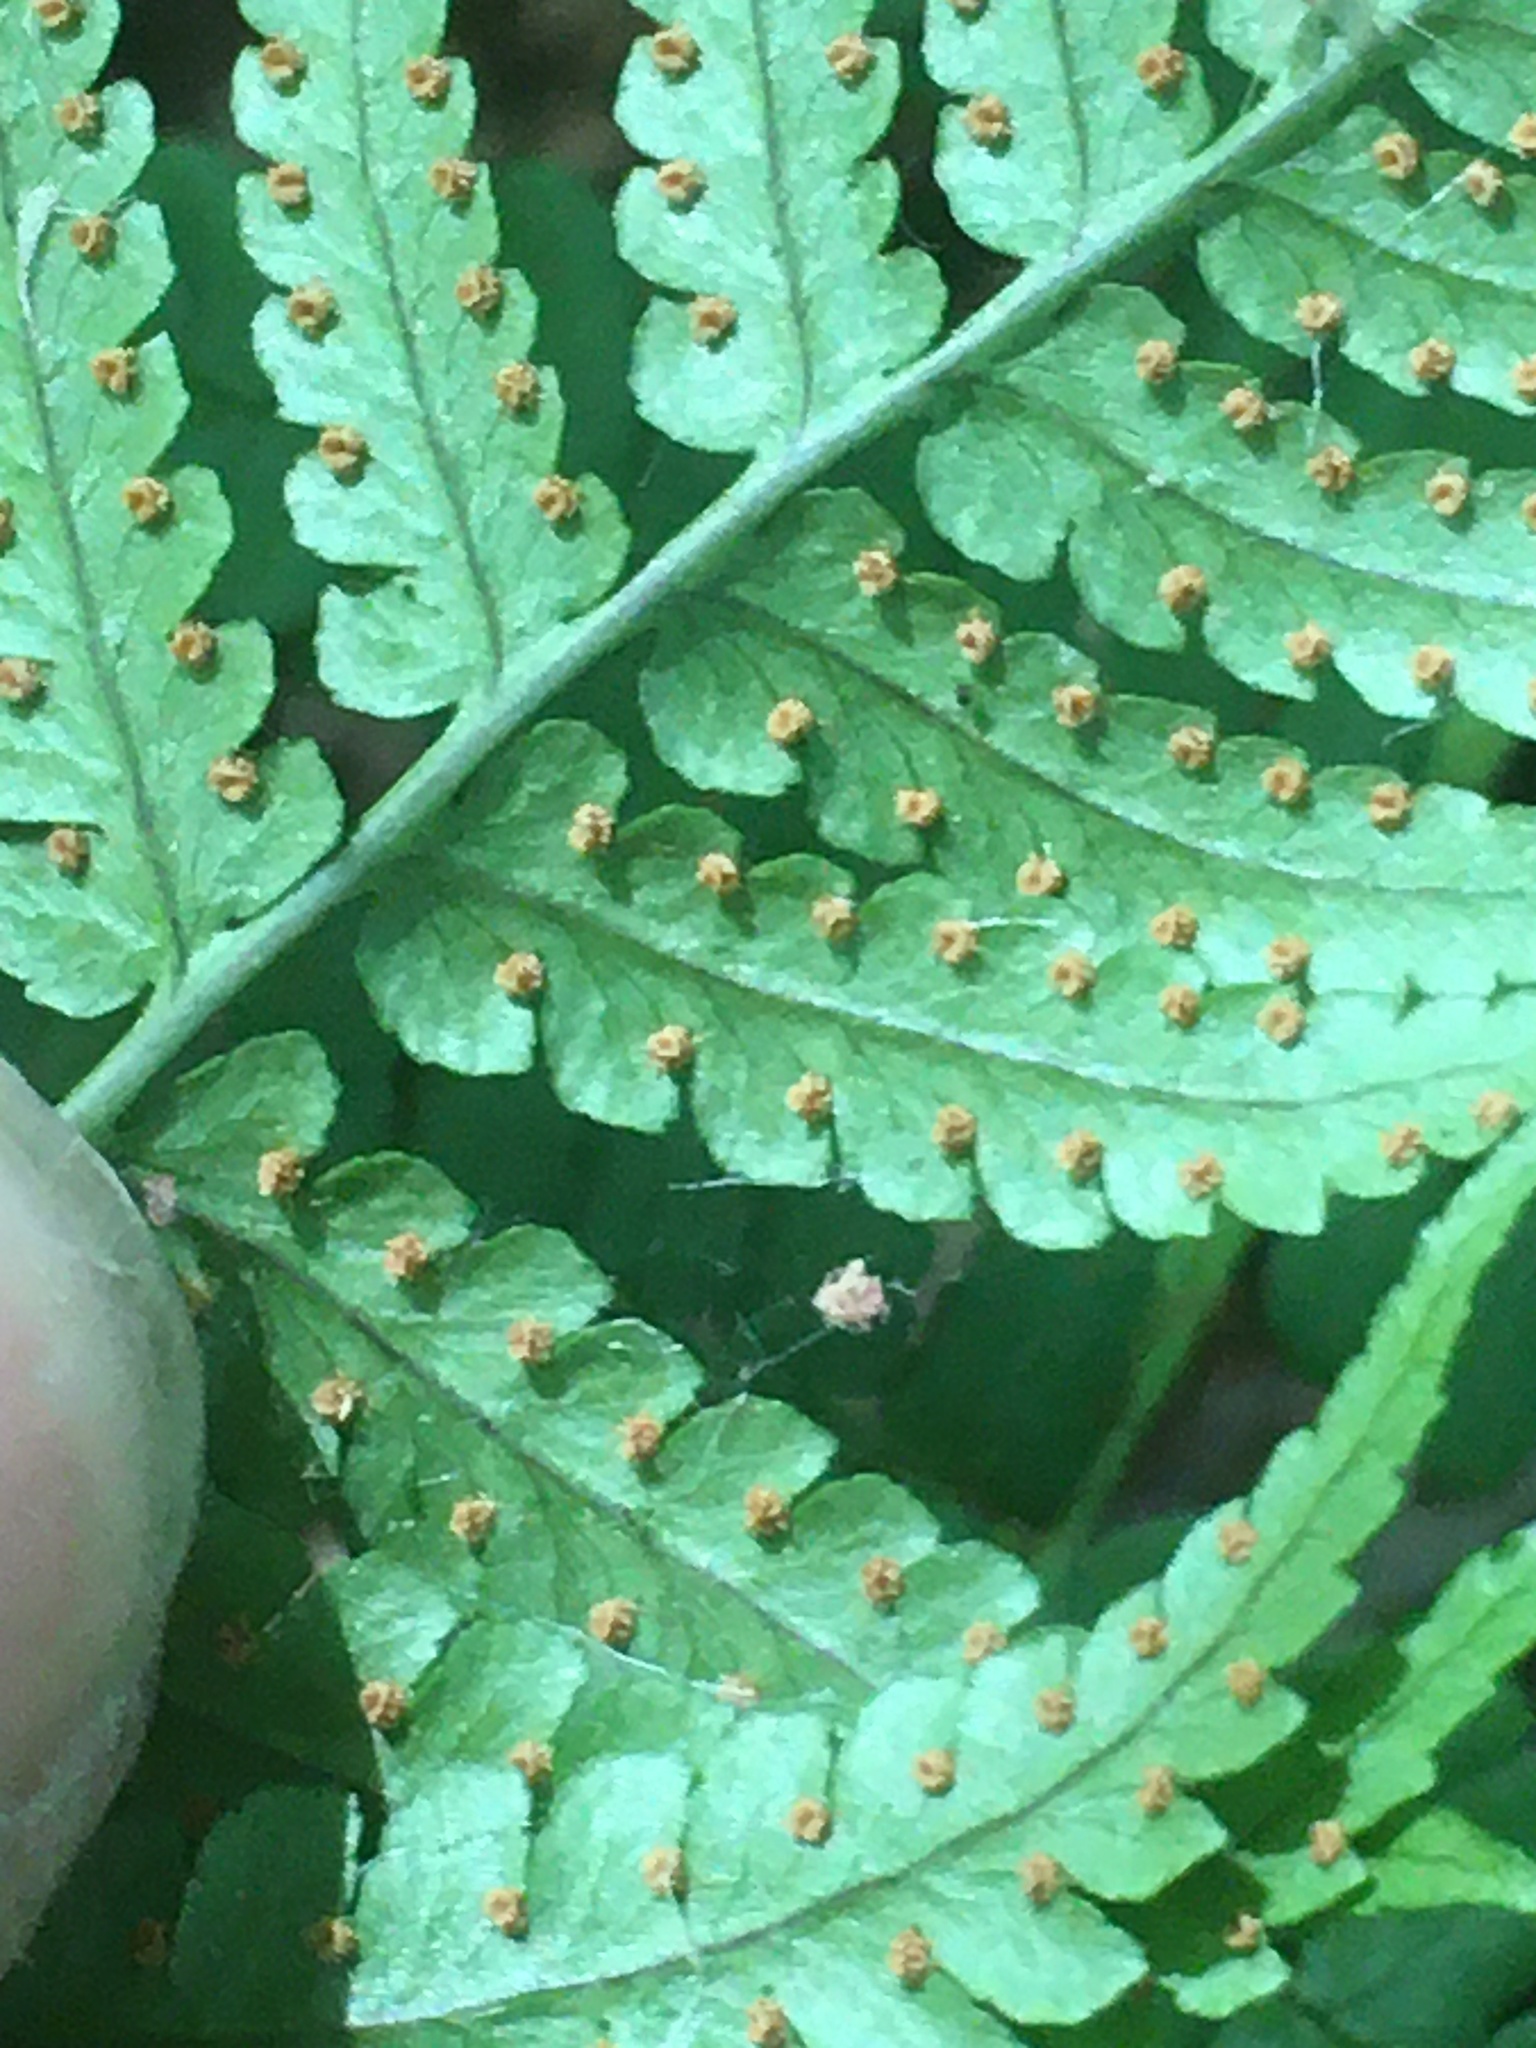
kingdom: Plantae
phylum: Tracheophyta
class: Polypodiopsida
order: Polypodiales
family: Dryopteridaceae
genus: Dryopteris
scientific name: Dryopteris marginalis
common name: Marginal wood fern
